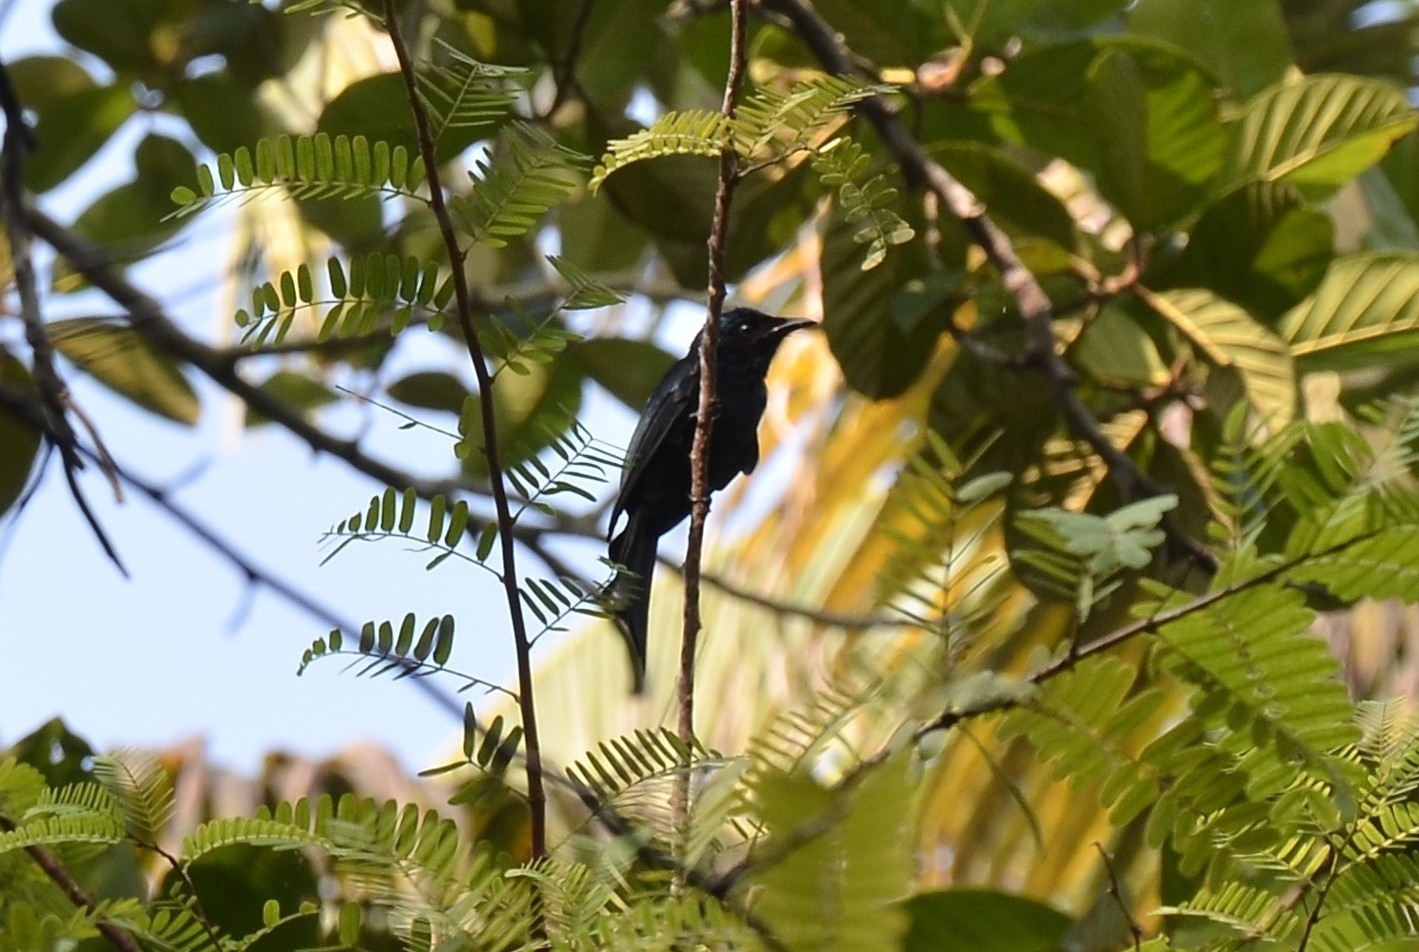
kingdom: Animalia
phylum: Chordata
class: Aves
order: Passeriformes
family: Dicruridae
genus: Dicrurus
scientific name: Dicrurus aeneus
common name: Bronzed drongo
